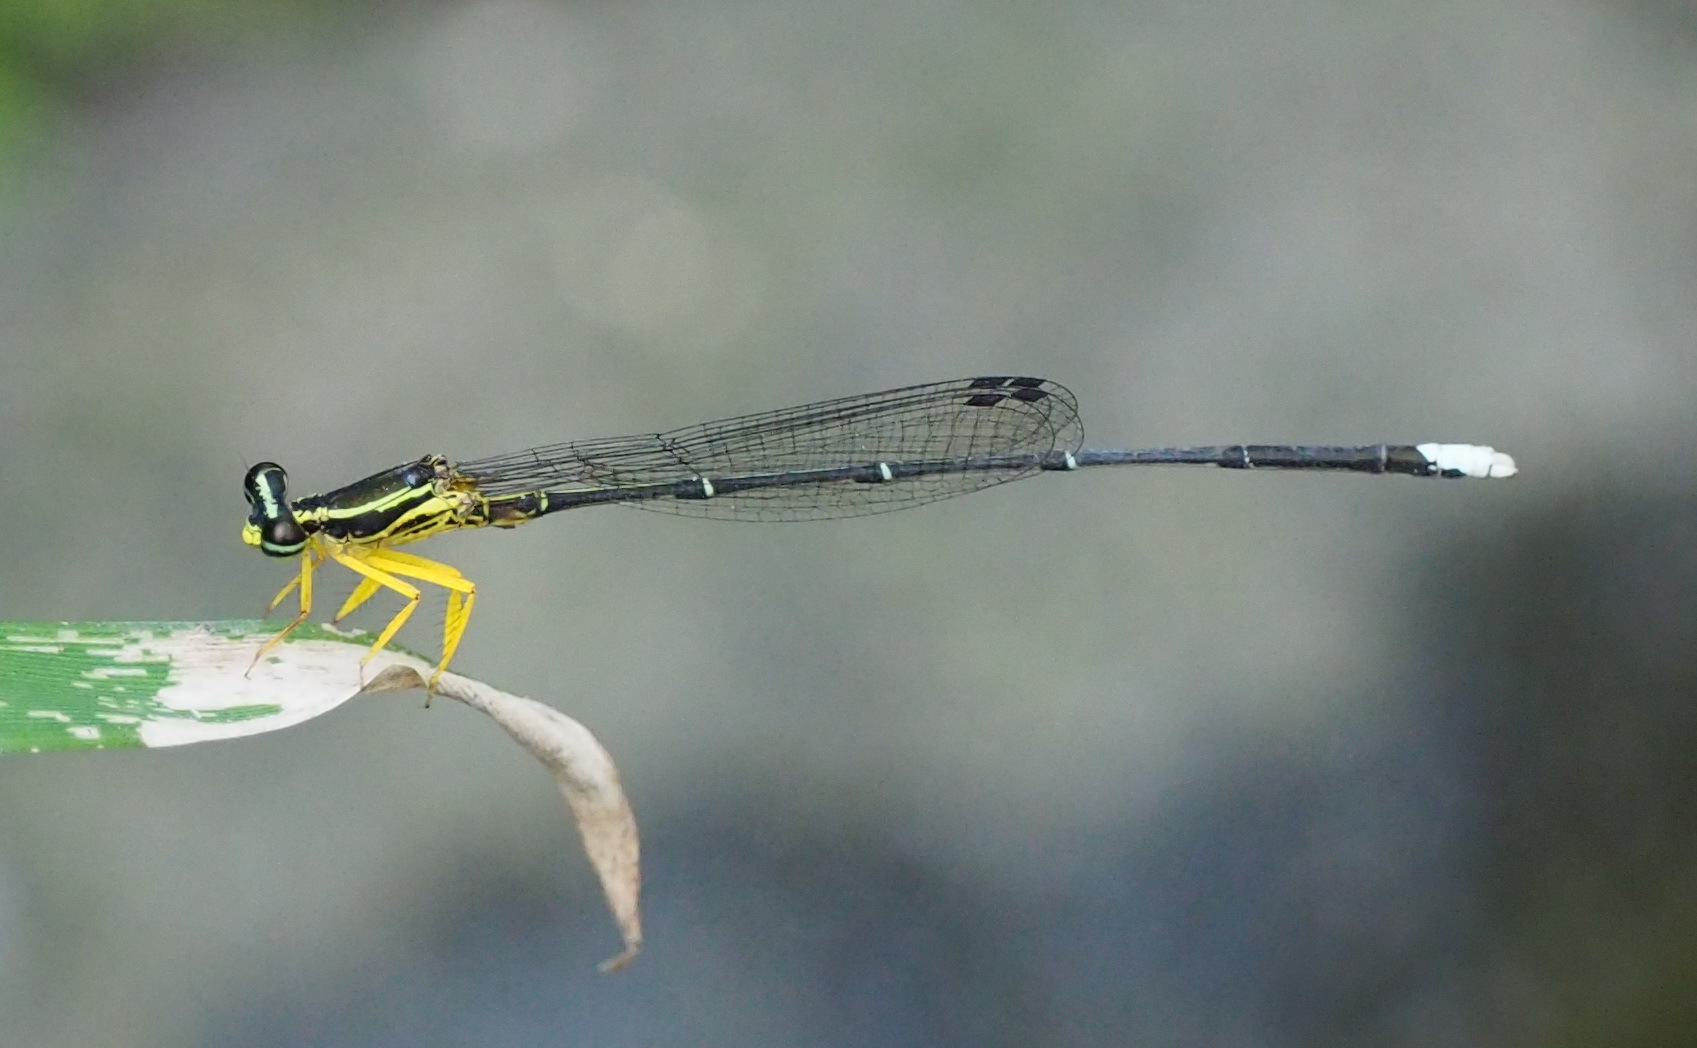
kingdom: Animalia
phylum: Arthropoda
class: Insecta
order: Odonata
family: Platycnemididae
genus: Copera
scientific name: Copera marginipes
